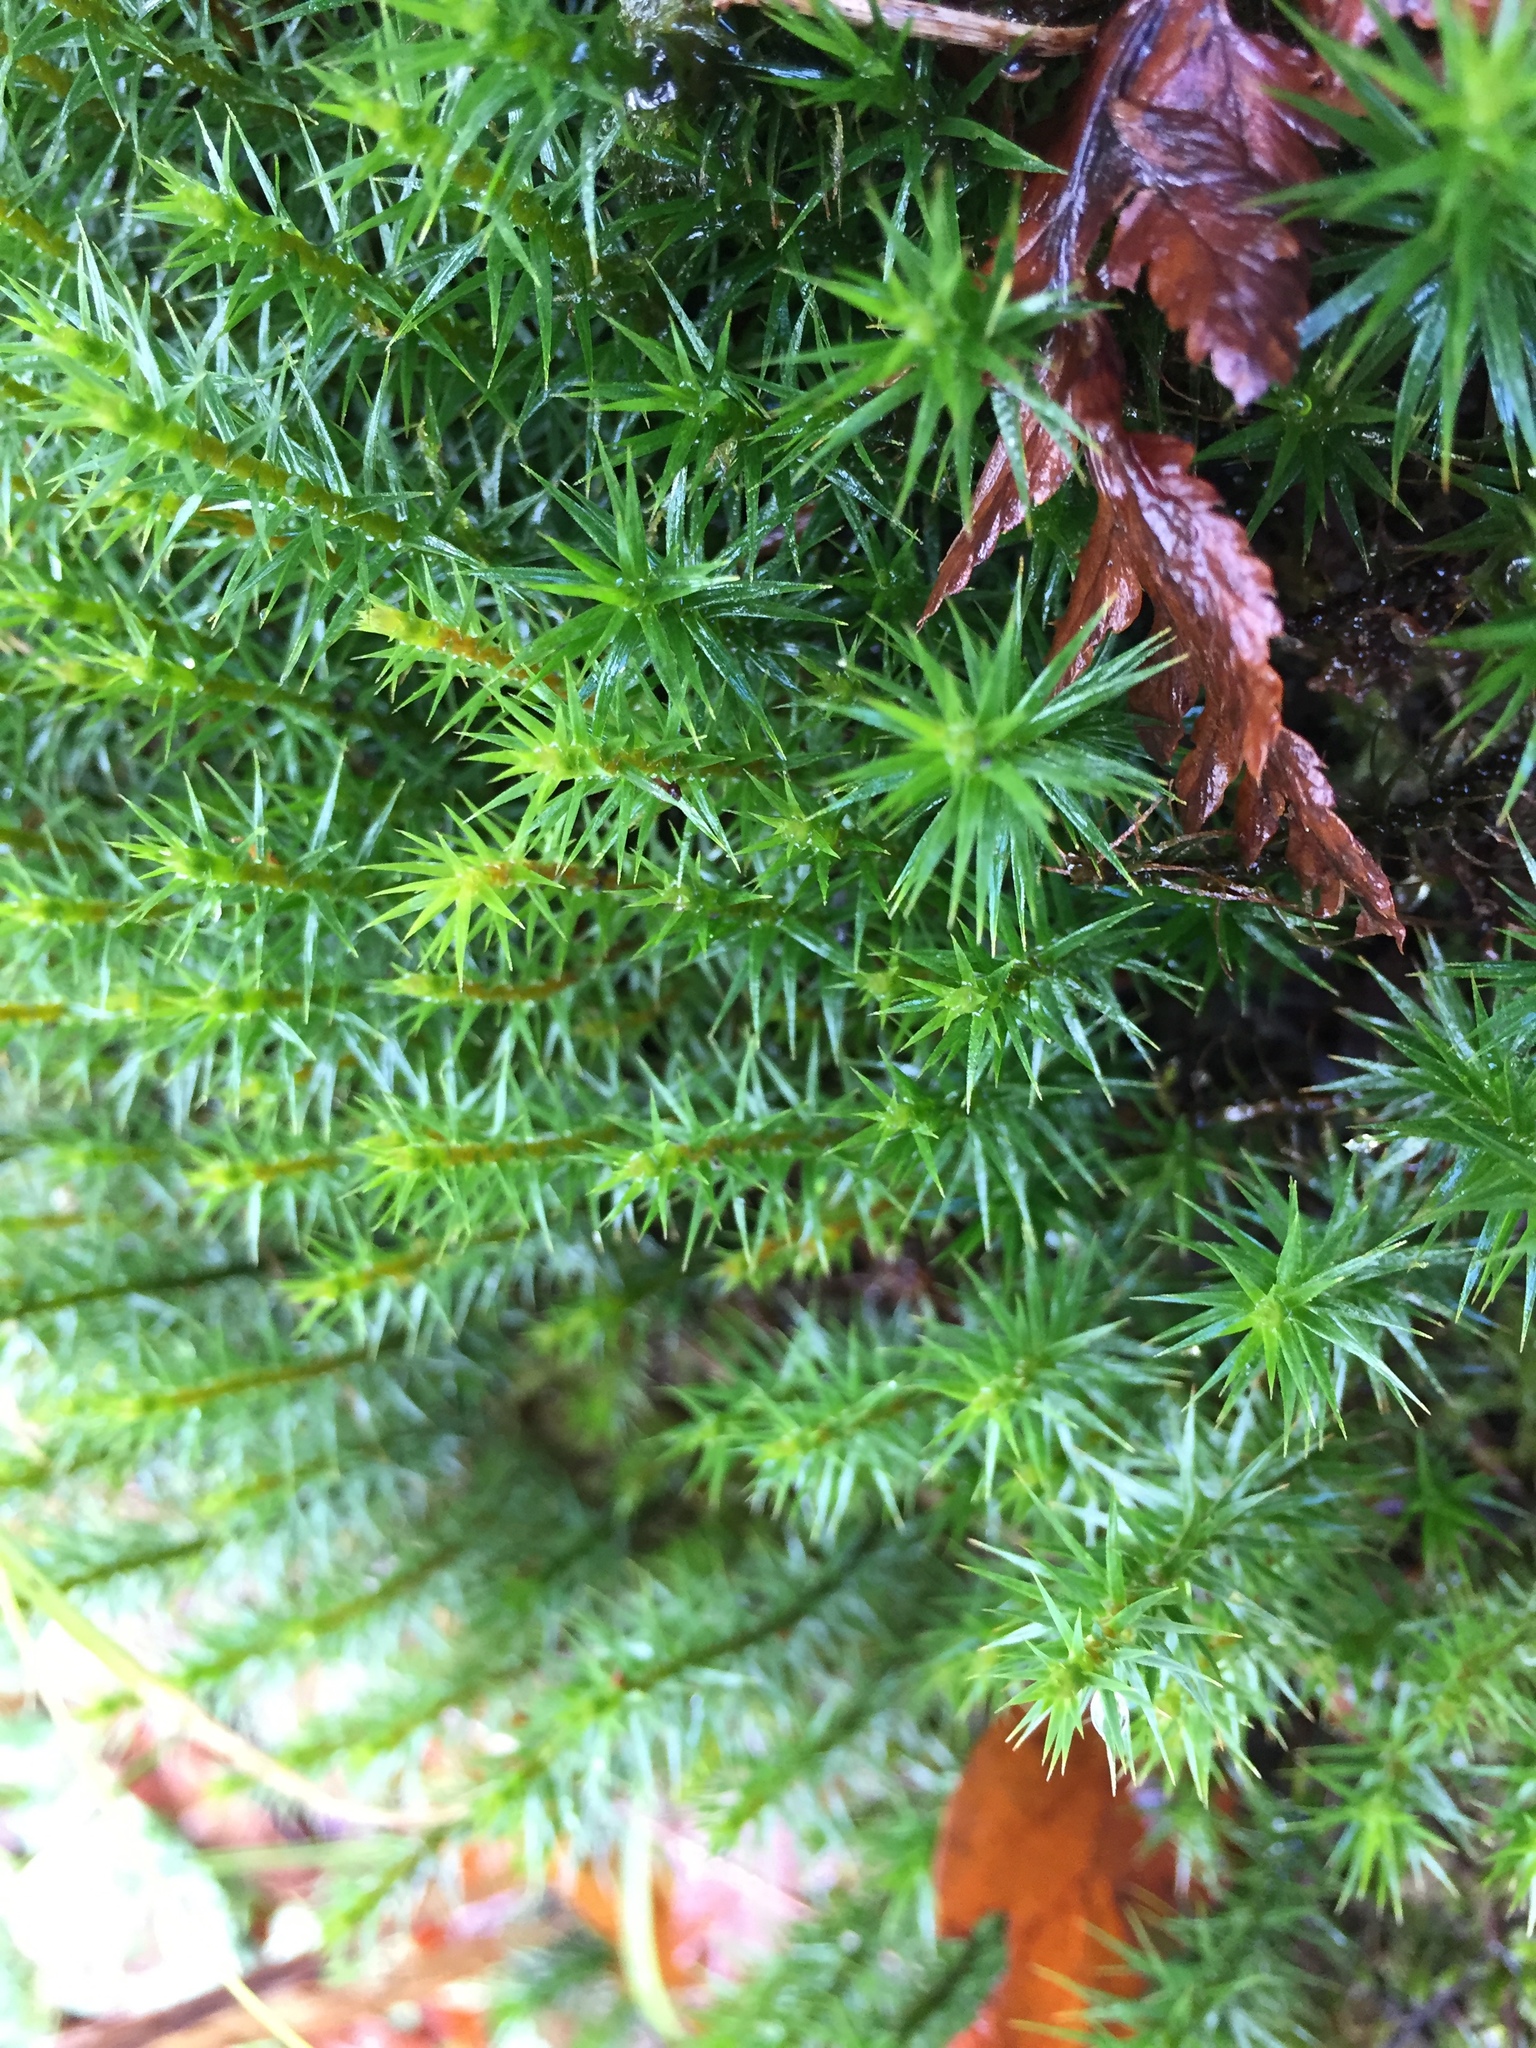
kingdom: Plantae
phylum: Bryophyta
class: Polytrichopsida
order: Polytrichales
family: Polytrichaceae
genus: Polytrichum
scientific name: Polytrichum commune
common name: Common haircap
